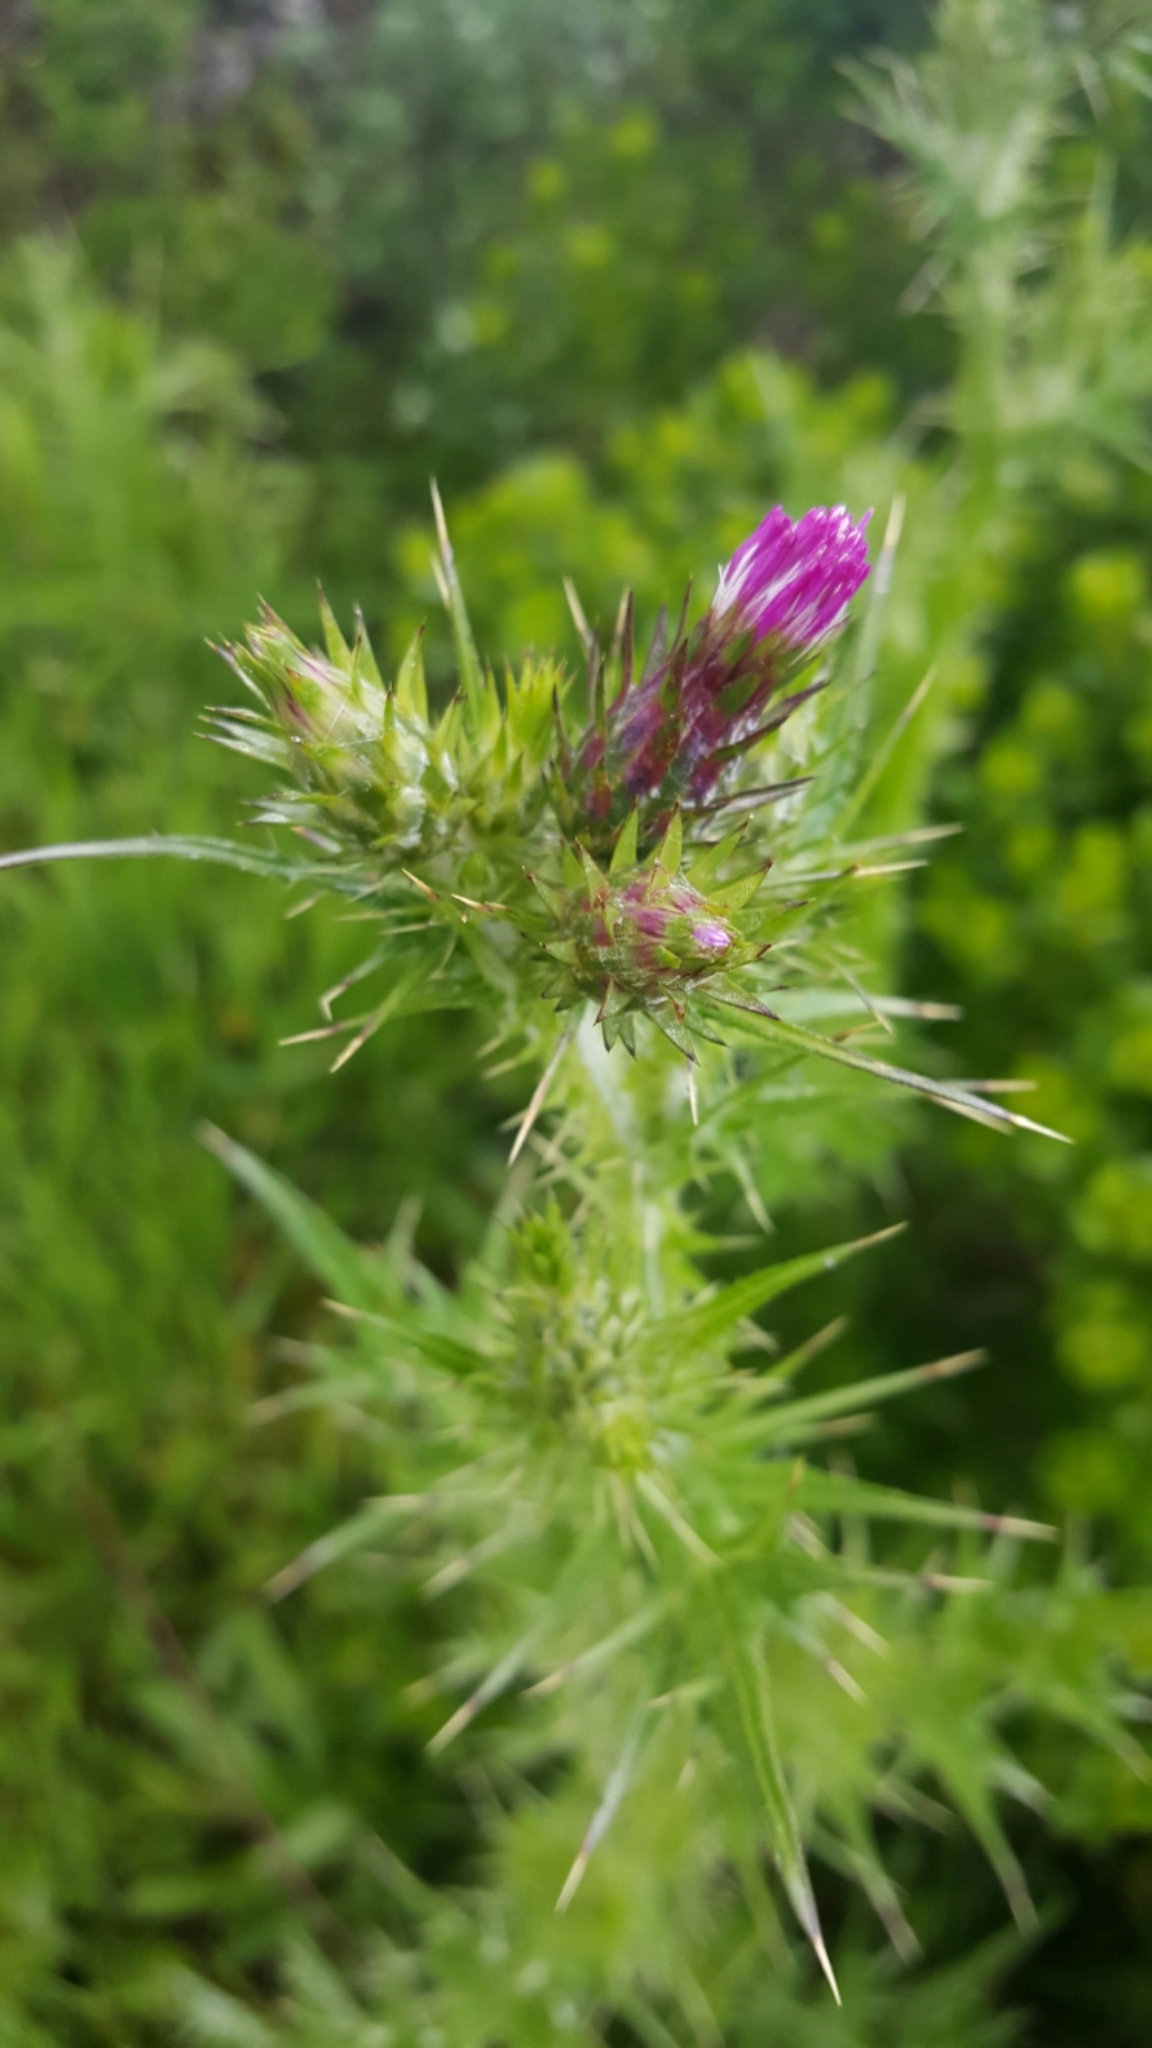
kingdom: Plantae
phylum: Tracheophyta
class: Magnoliopsida
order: Asterales
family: Asteraceae
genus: Carduus
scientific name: Carduus pycnocephalus
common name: Plymouth thistle
